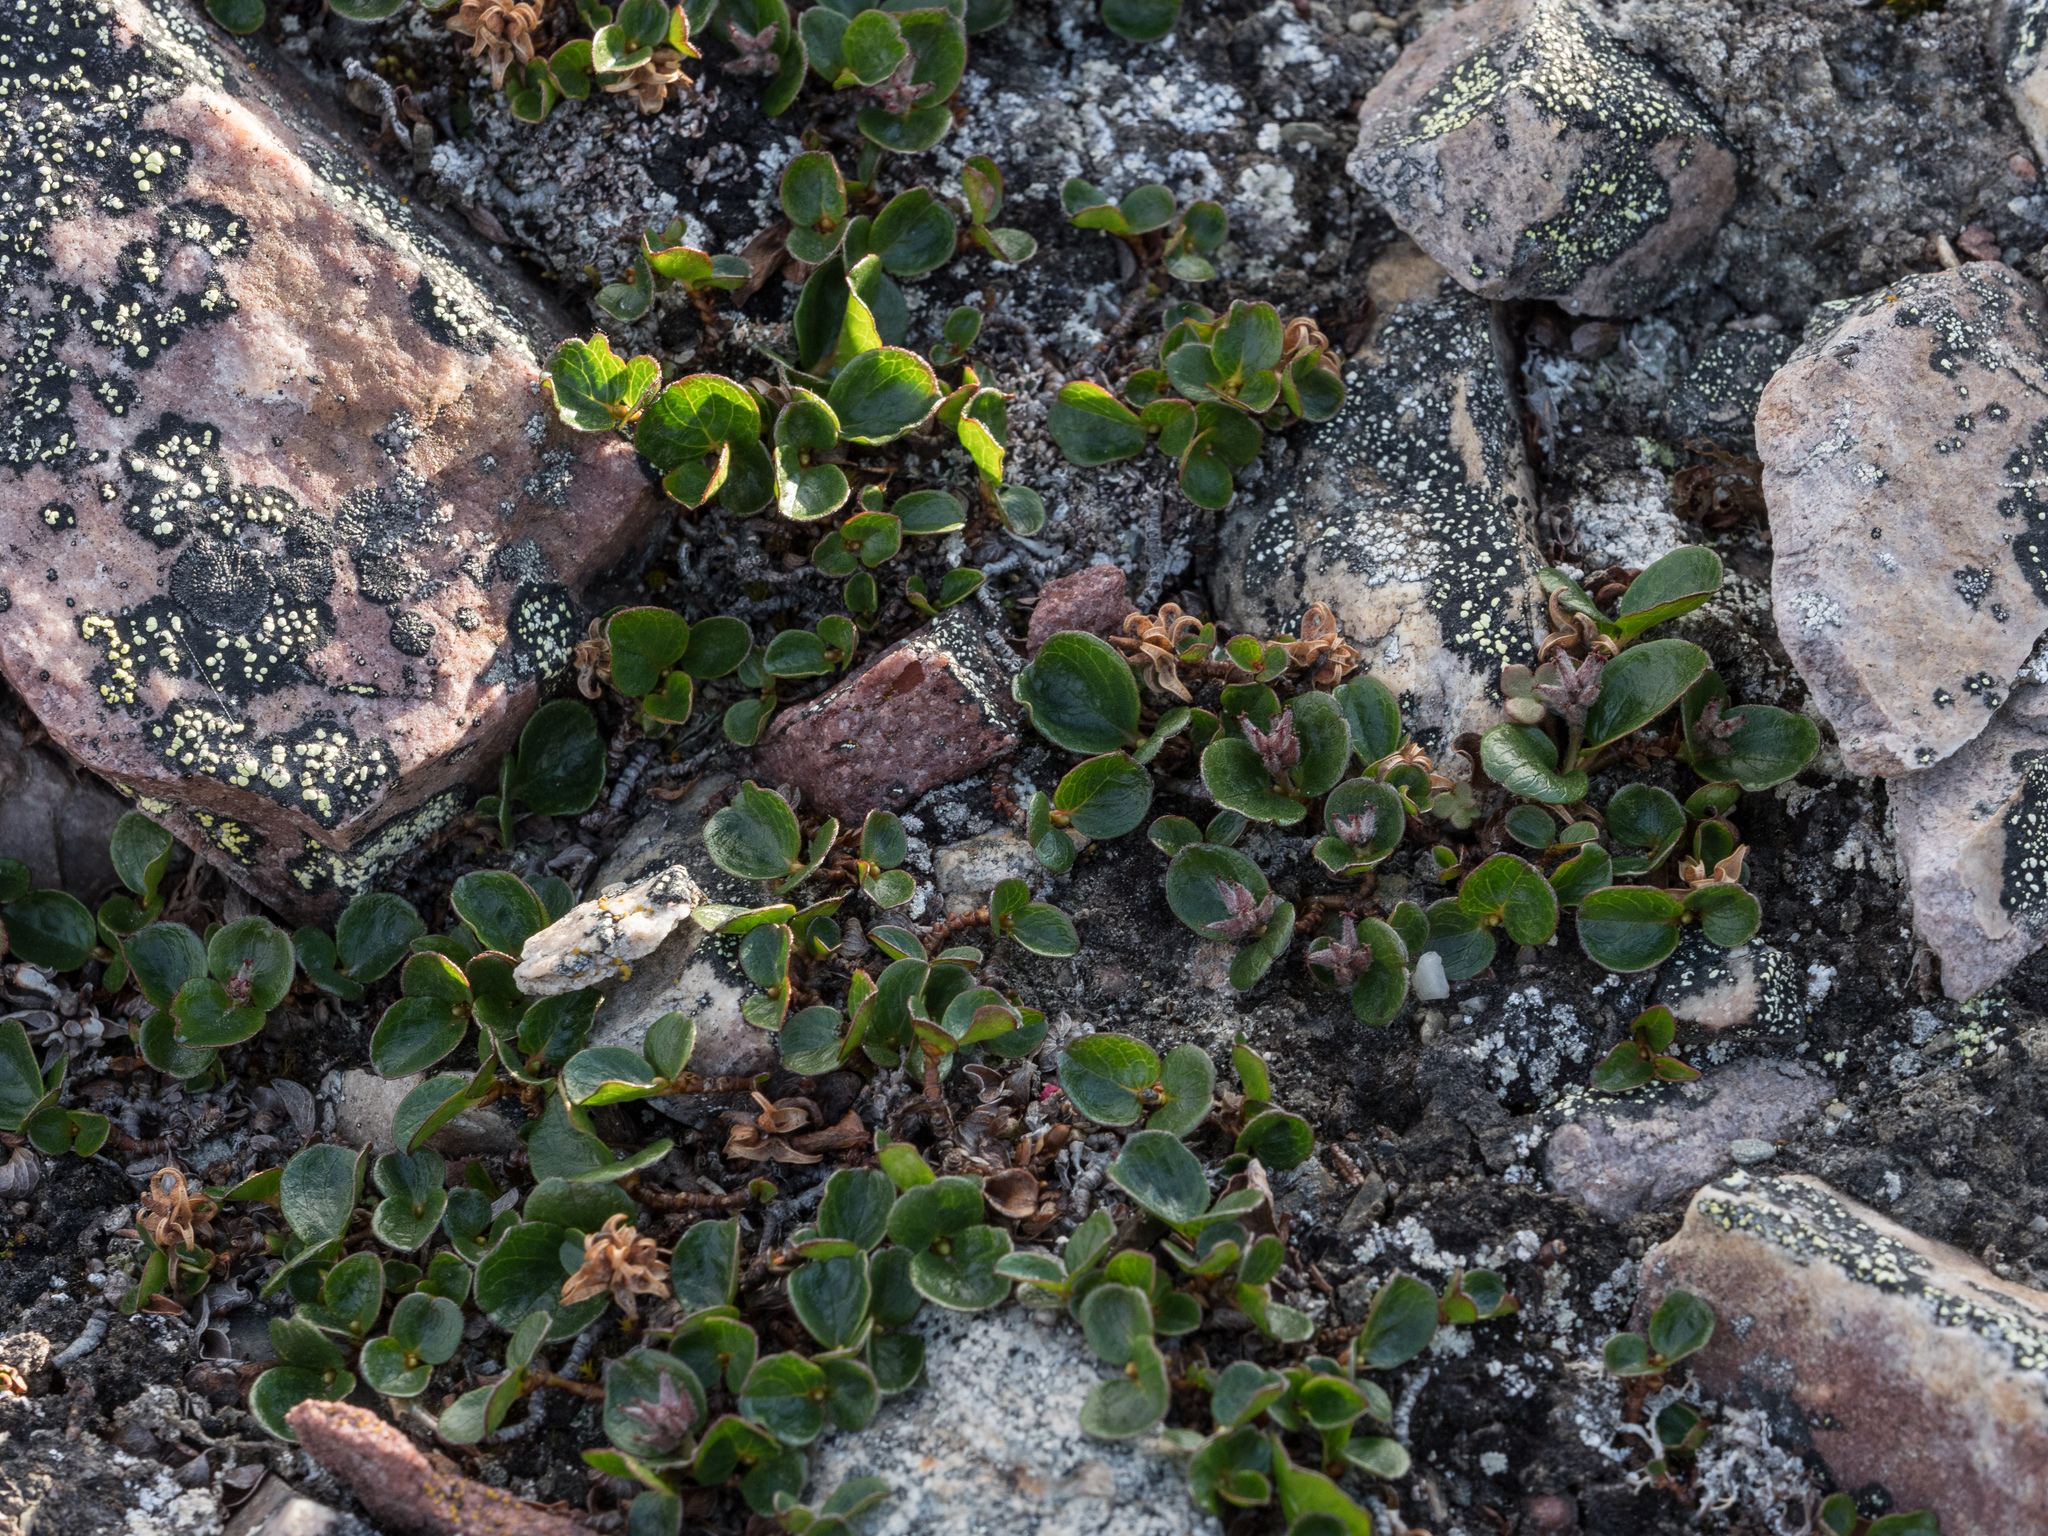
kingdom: Plantae
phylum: Tracheophyta
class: Magnoliopsida
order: Malpighiales
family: Salicaceae
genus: Salix
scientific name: Salix polaris
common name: Polar willow
